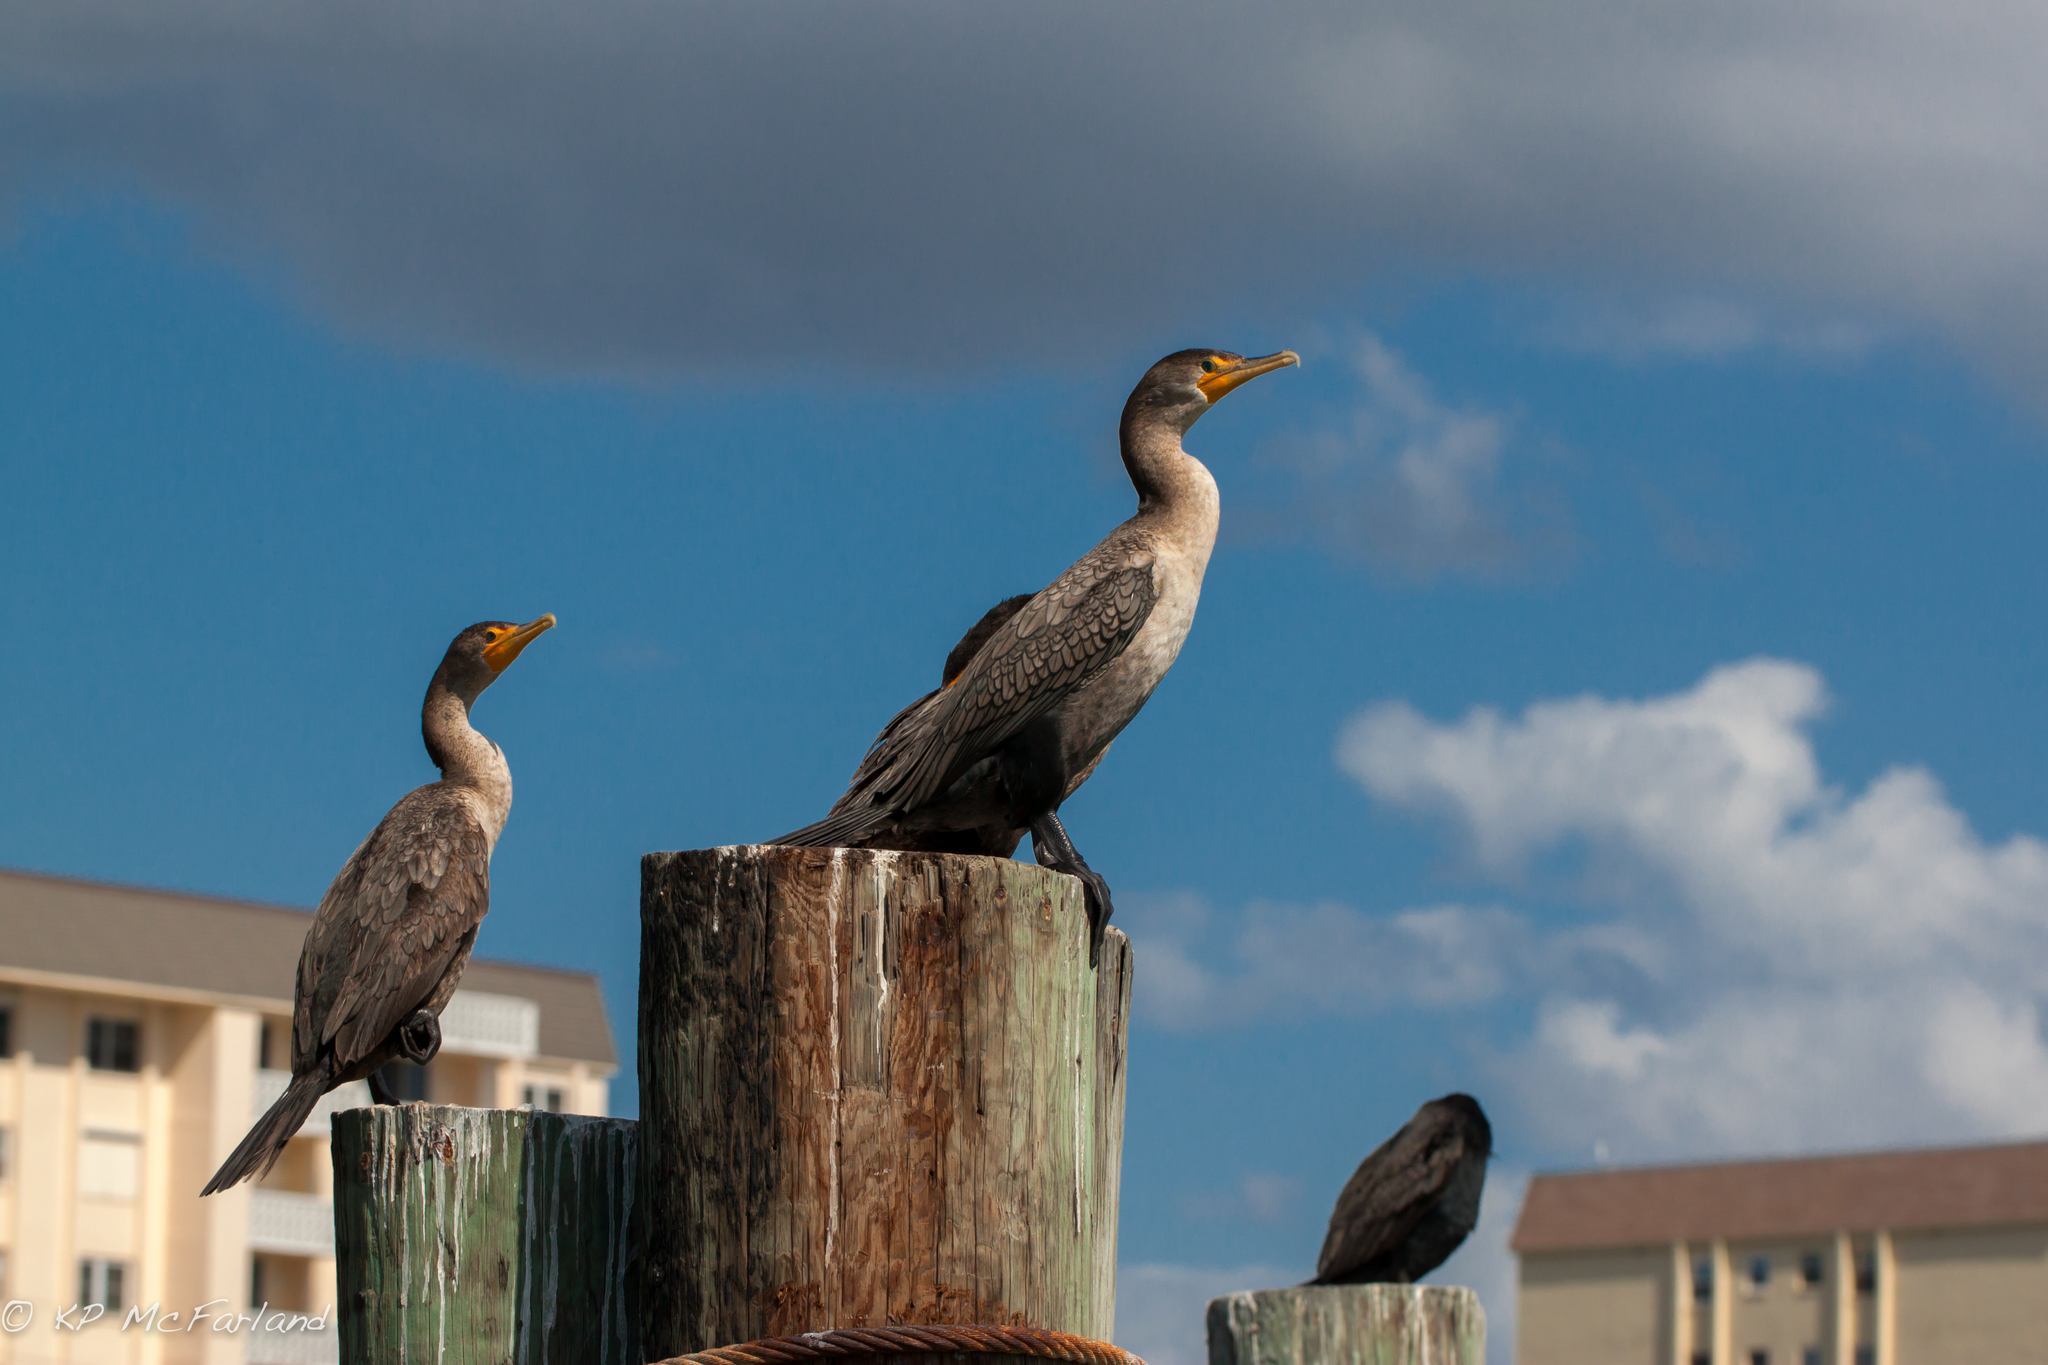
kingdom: Animalia
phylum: Chordata
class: Aves
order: Suliformes
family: Phalacrocoracidae
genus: Phalacrocorax
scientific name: Phalacrocorax auritus
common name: Double-crested cormorant
